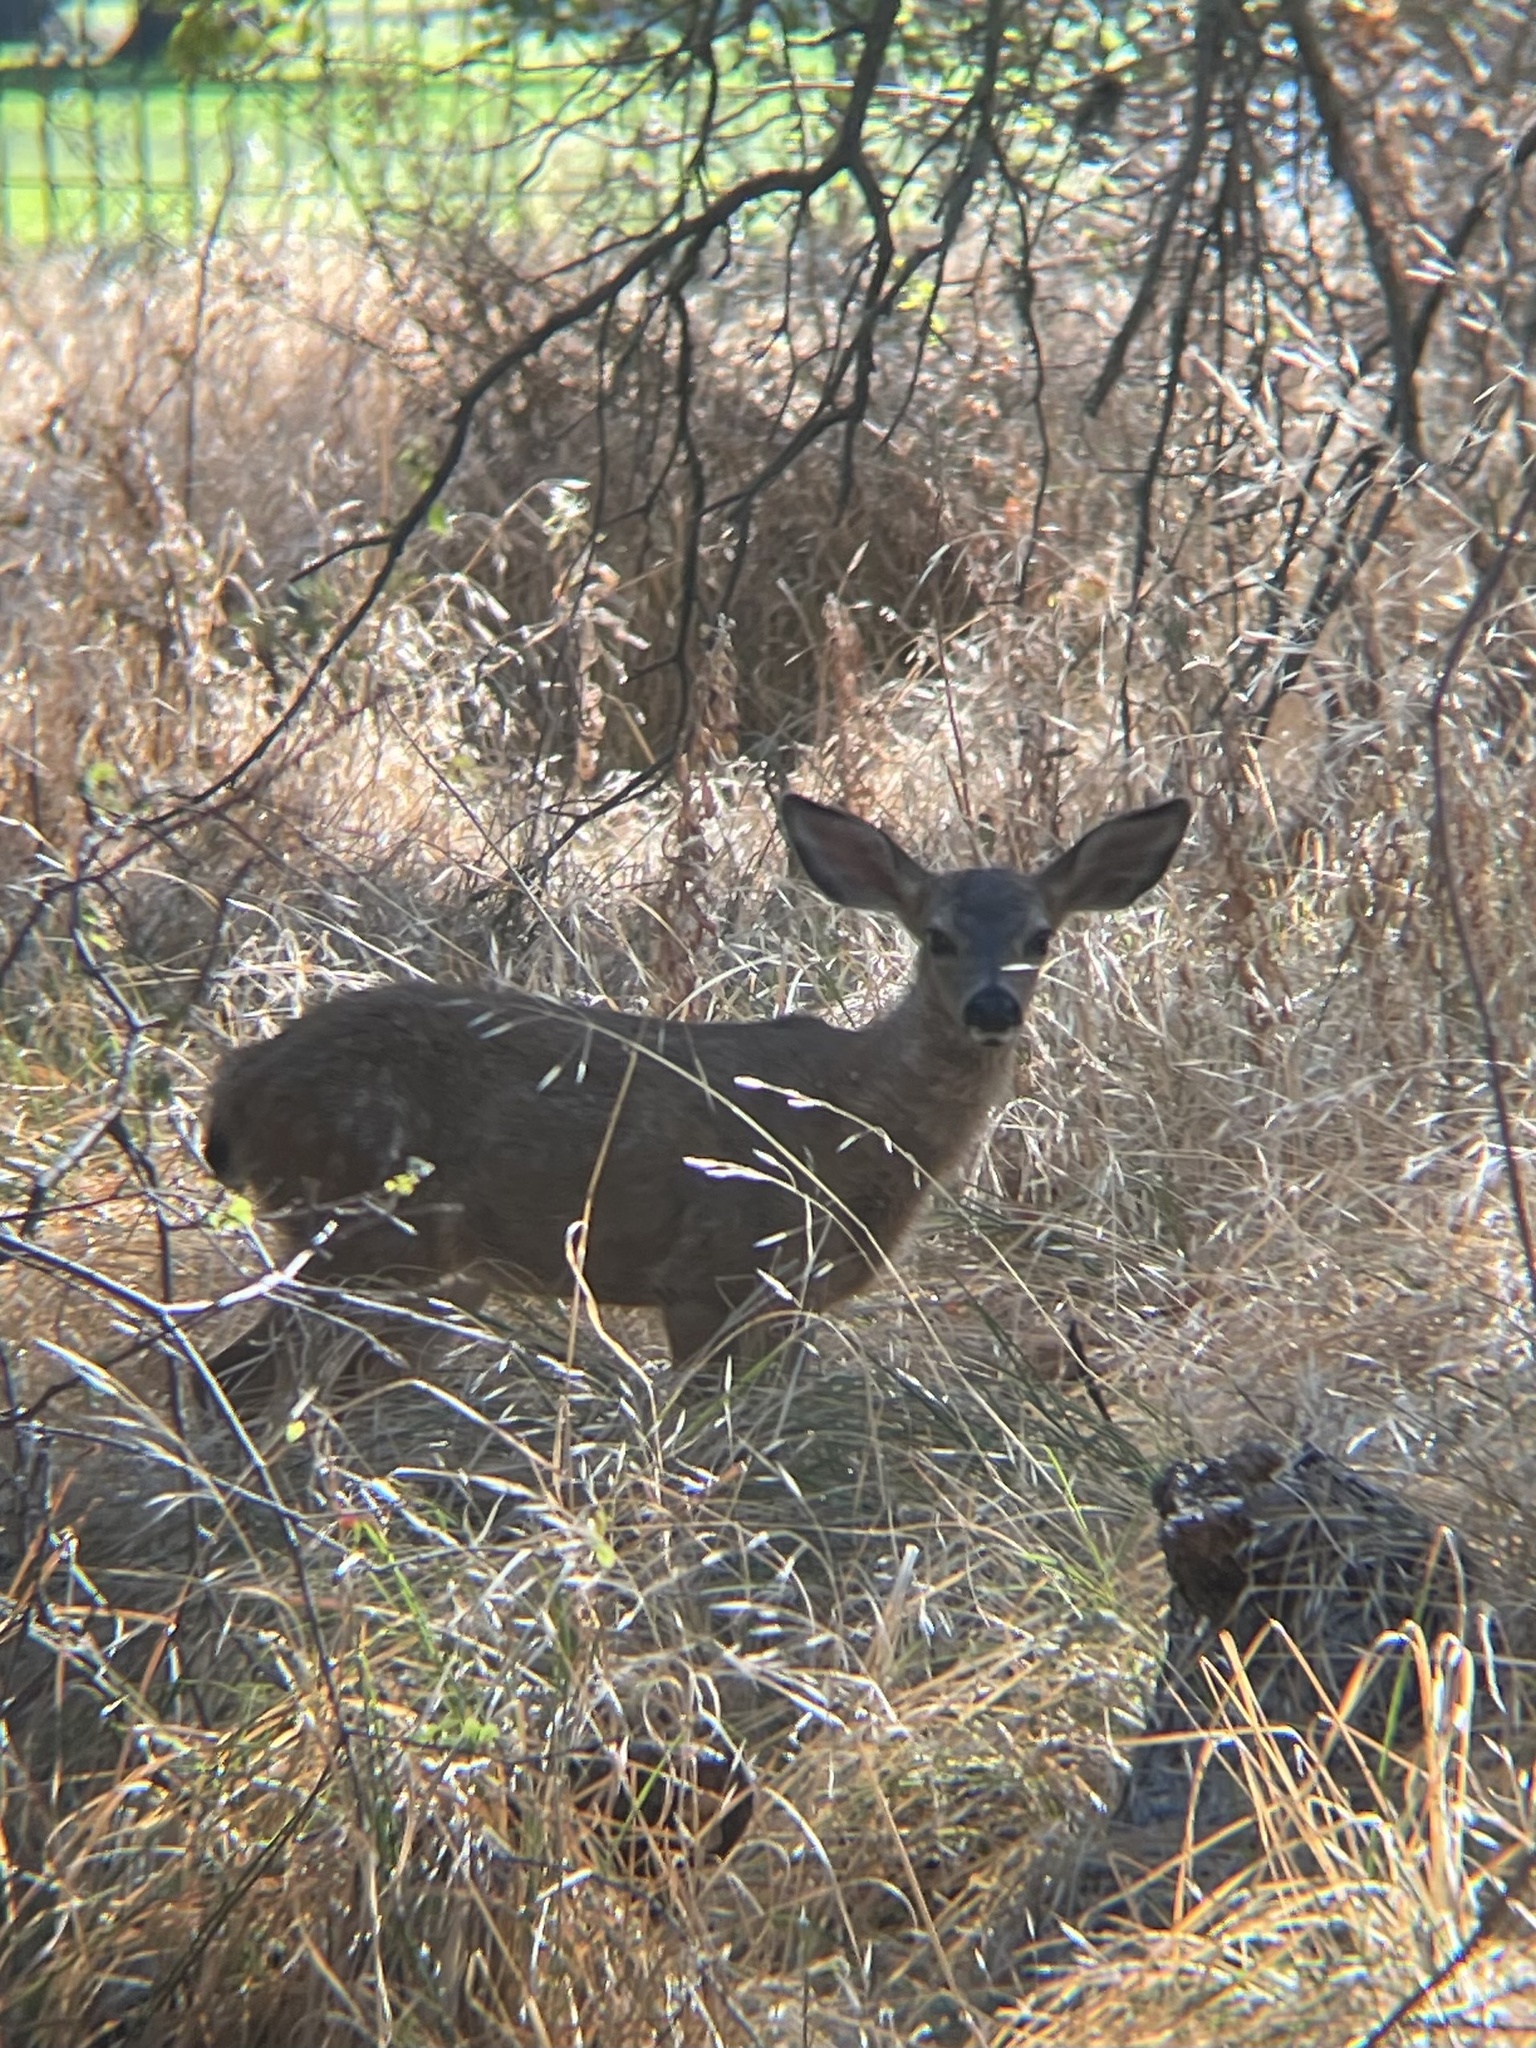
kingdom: Animalia
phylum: Chordata
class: Mammalia
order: Artiodactyla
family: Cervidae
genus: Odocoileus
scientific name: Odocoileus hemionus
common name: Mule deer
